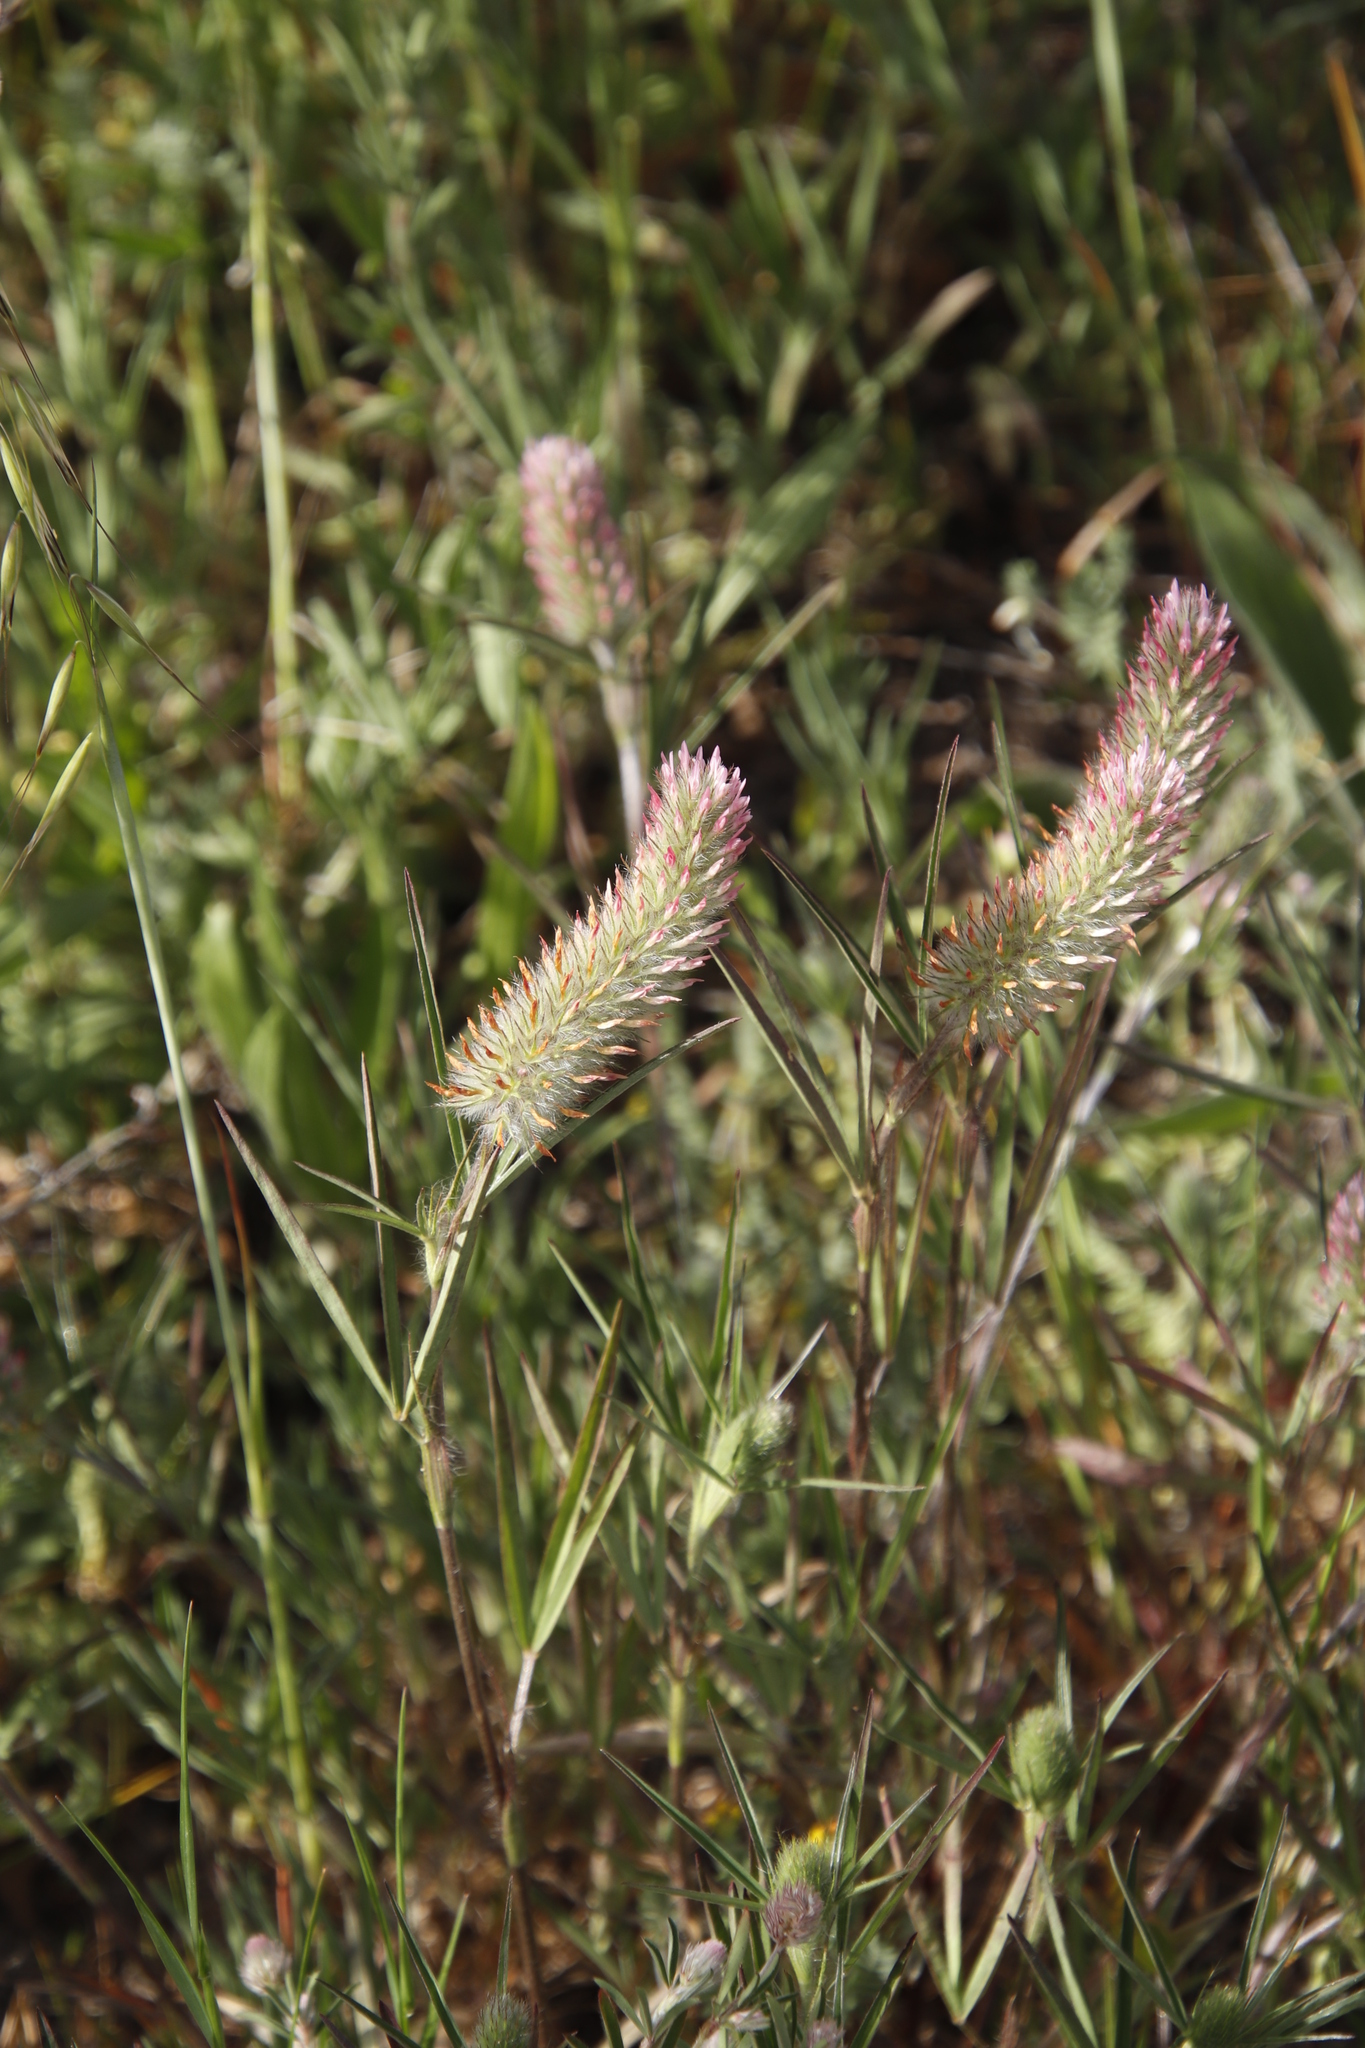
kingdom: Plantae
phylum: Tracheophyta
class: Magnoliopsida
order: Fabales
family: Fabaceae
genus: Trifolium
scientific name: Trifolium angustifolium
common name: Narrow clover
